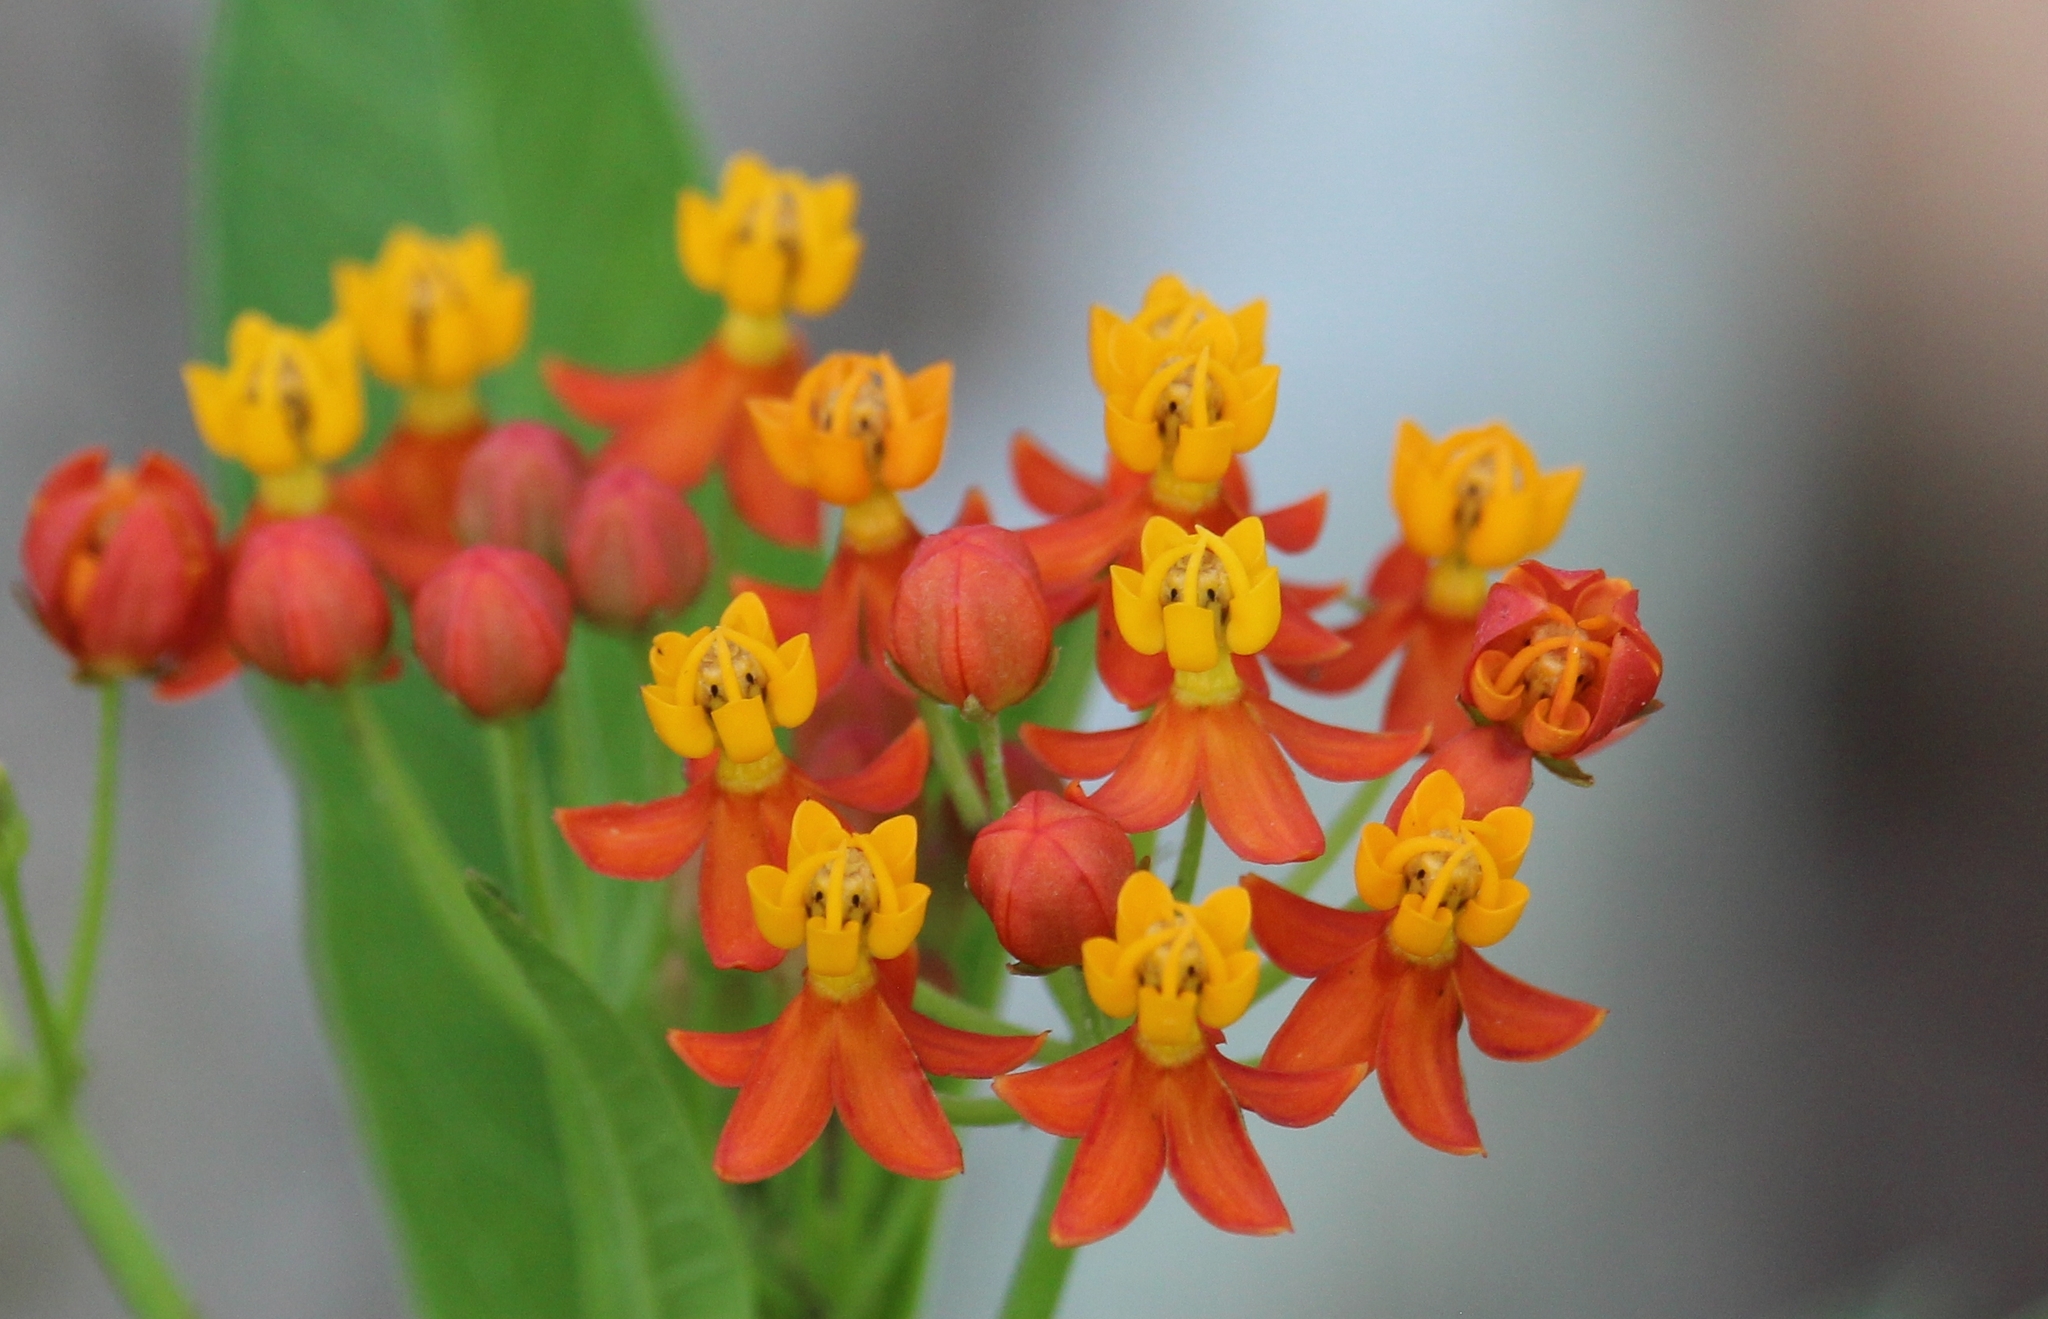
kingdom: Plantae
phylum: Tracheophyta
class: Magnoliopsida
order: Gentianales
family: Apocynaceae
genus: Asclepias
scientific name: Asclepias curassavica
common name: Bloodflower
